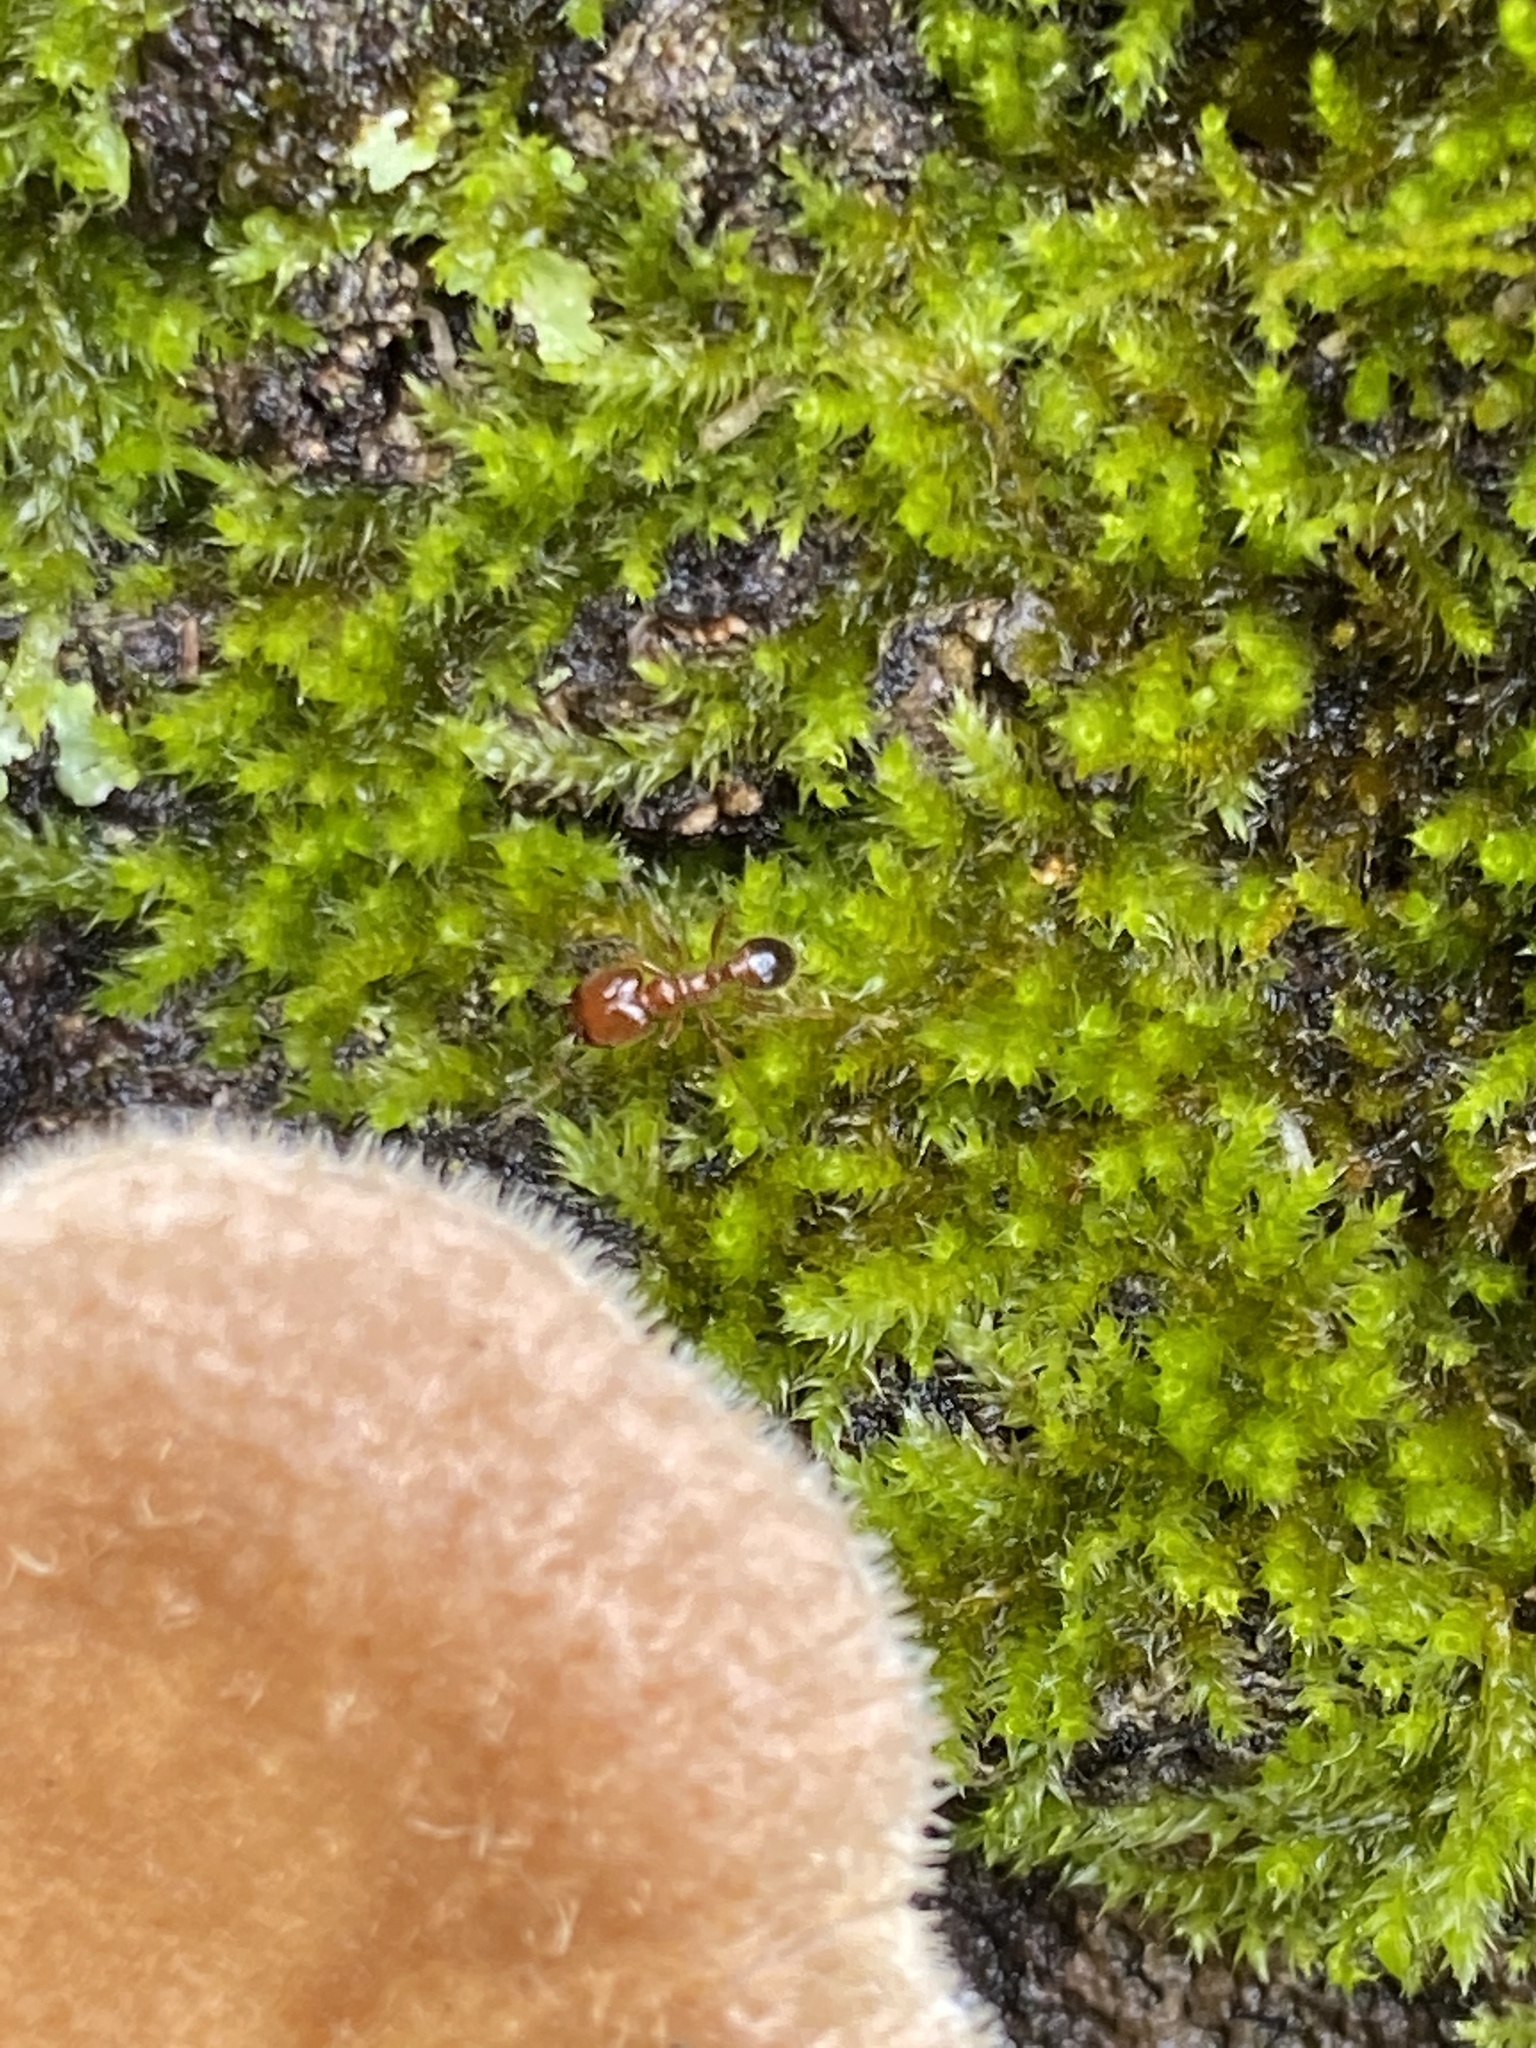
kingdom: Animalia
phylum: Arthropoda
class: Insecta
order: Hymenoptera
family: Formicidae
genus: Pheidole
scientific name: Pheidole bicarinata
